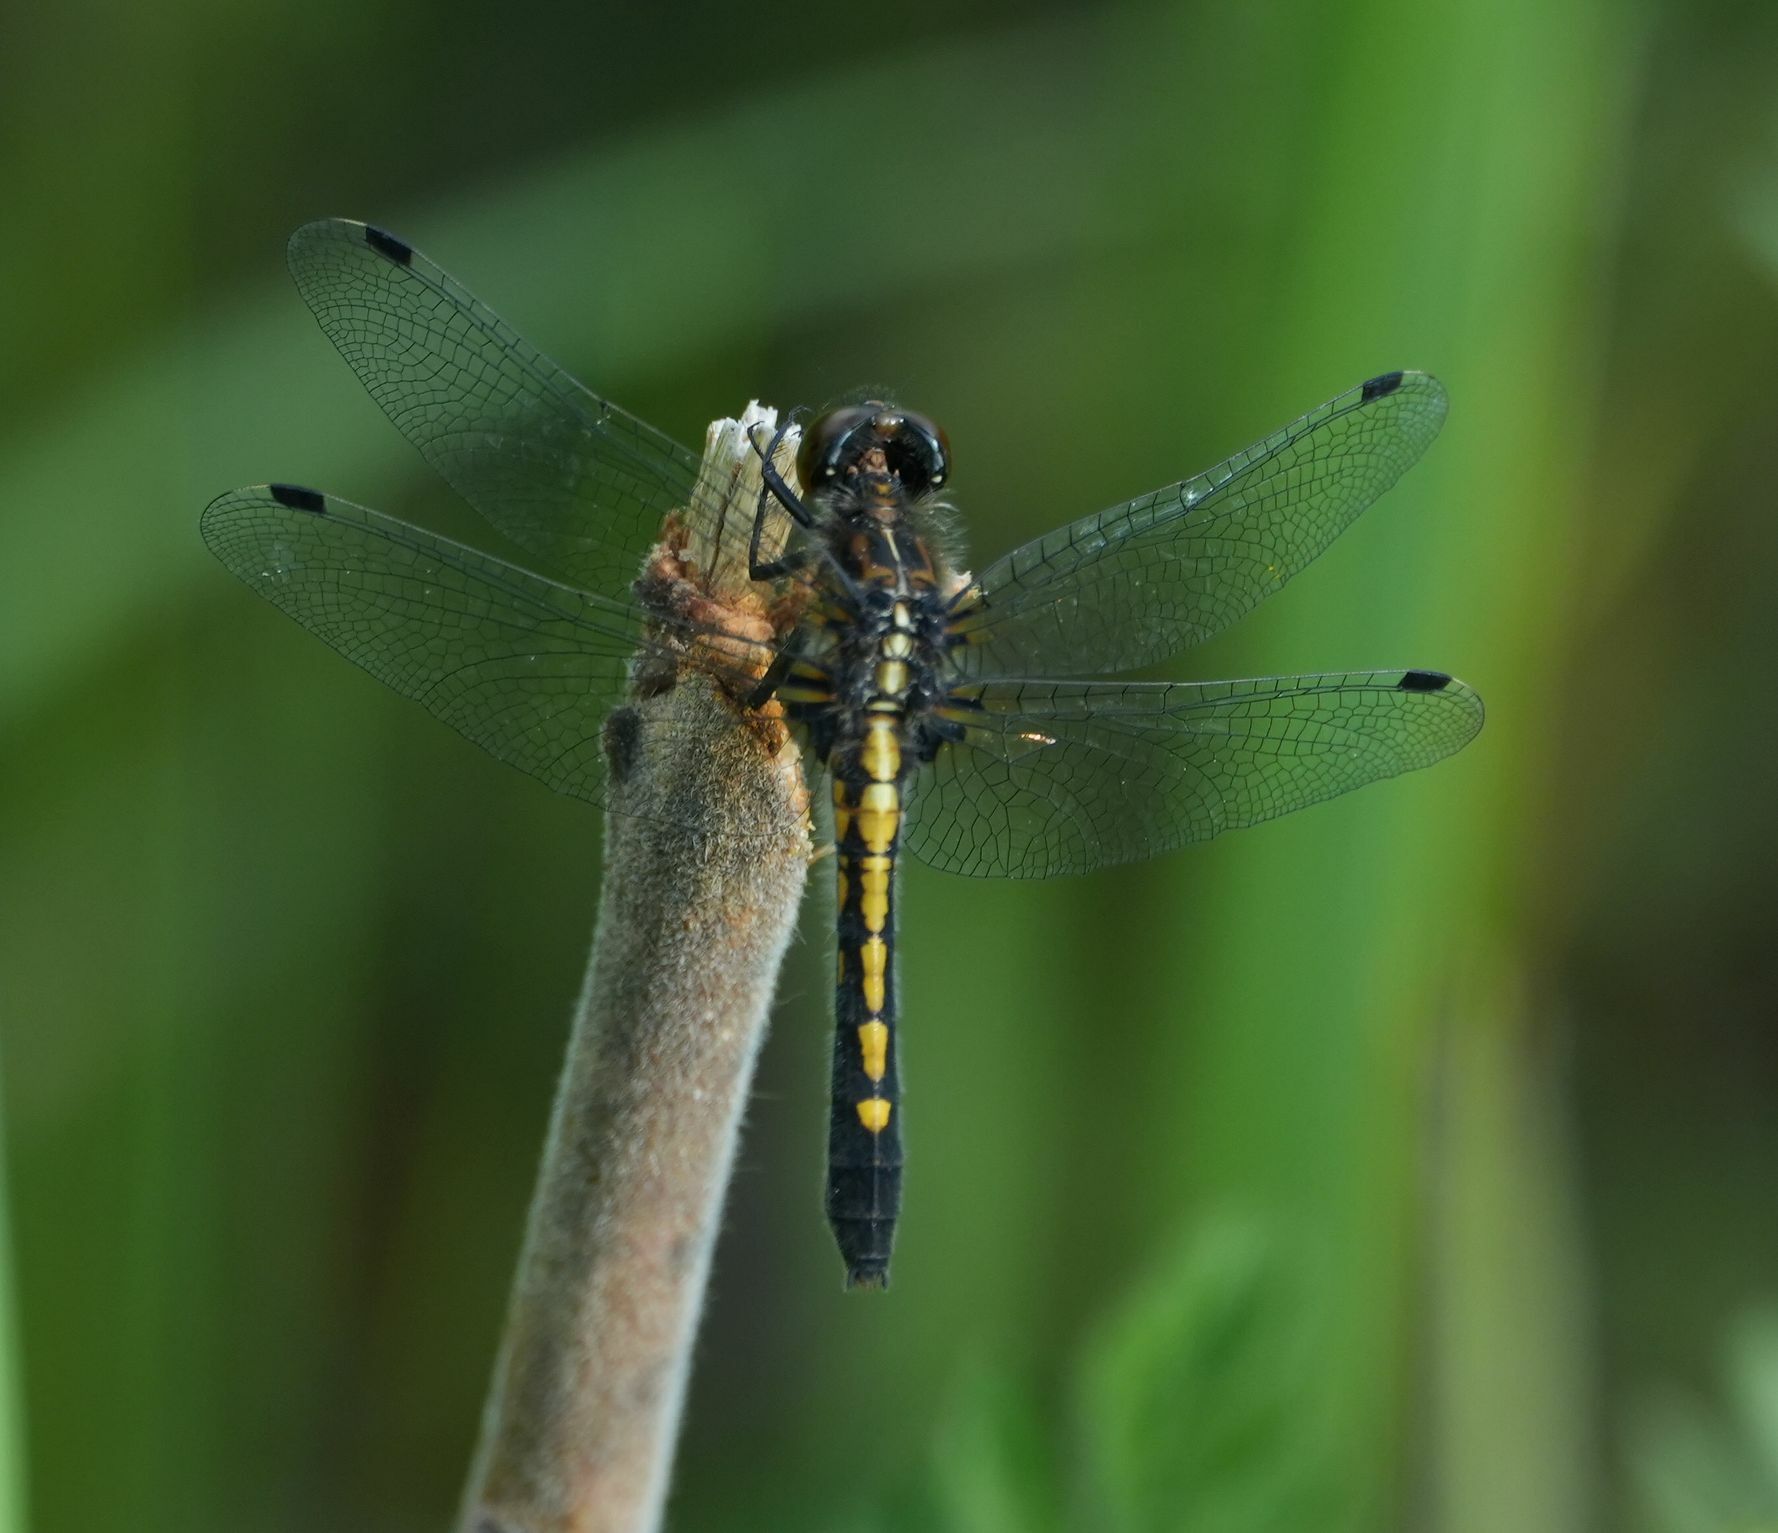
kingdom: Animalia
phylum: Arthropoda
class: Insecta
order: Odonata
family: Libellulidae
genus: Leucorrhinia
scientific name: Leucorrhinia intacta
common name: Dot-tailed whiteface
